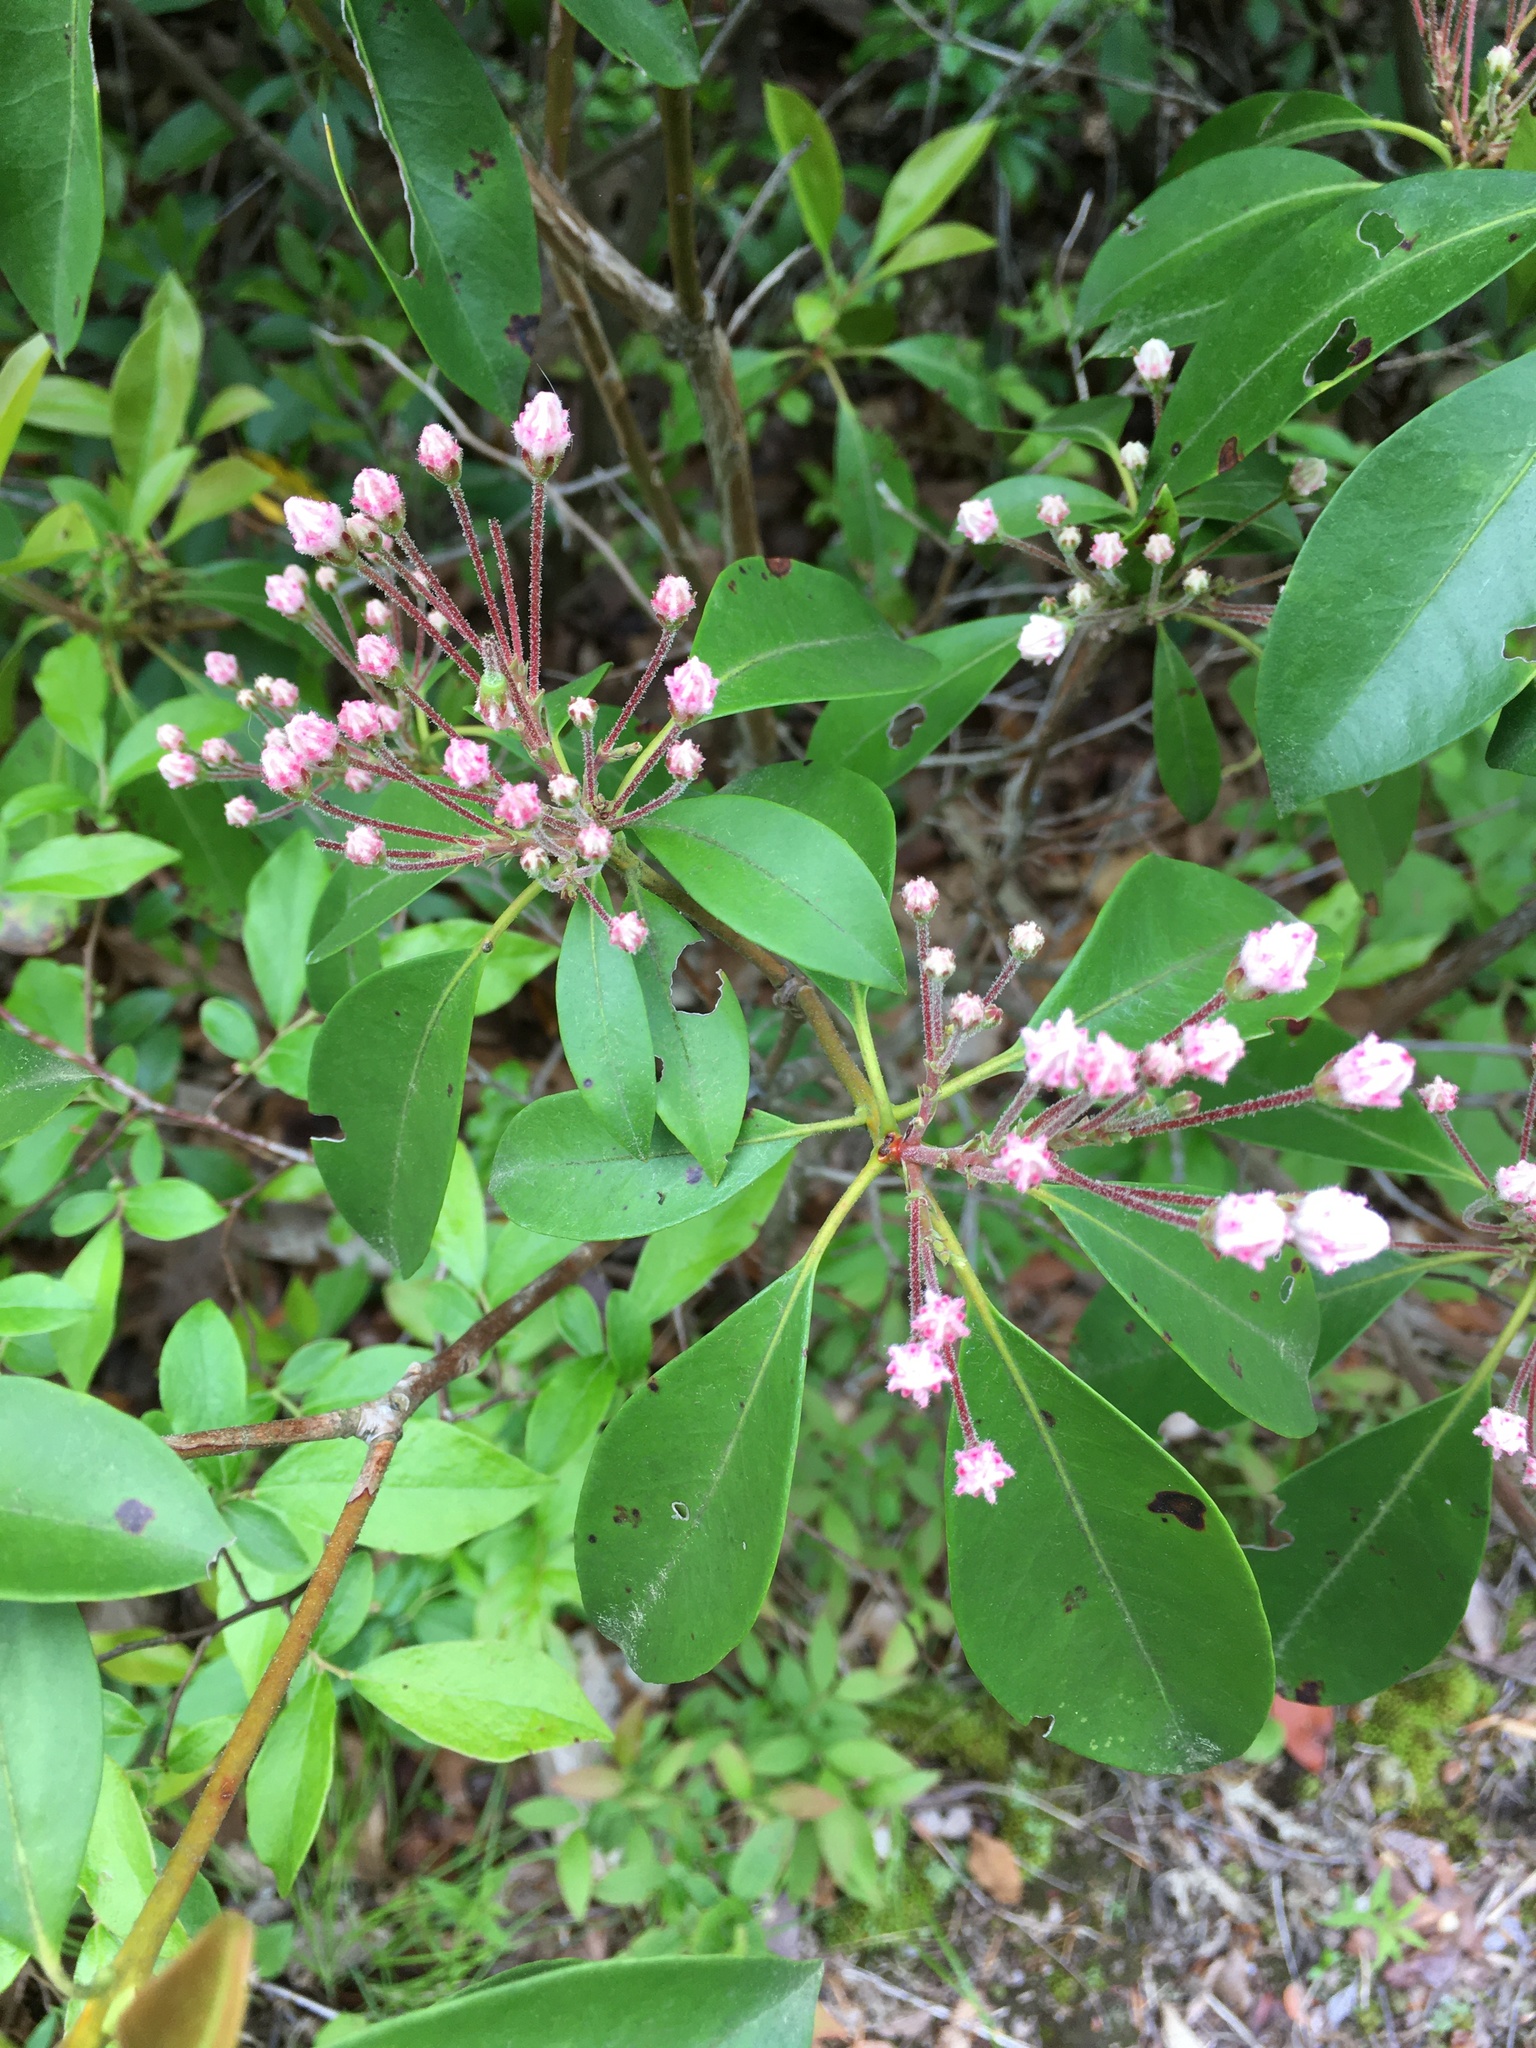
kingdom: Plantae
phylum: Tracheophyta
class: Magnoliopsida
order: Ericales
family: Ericaceae
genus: Kalmia
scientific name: Kalmia latifolia
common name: Mountain-laurel
